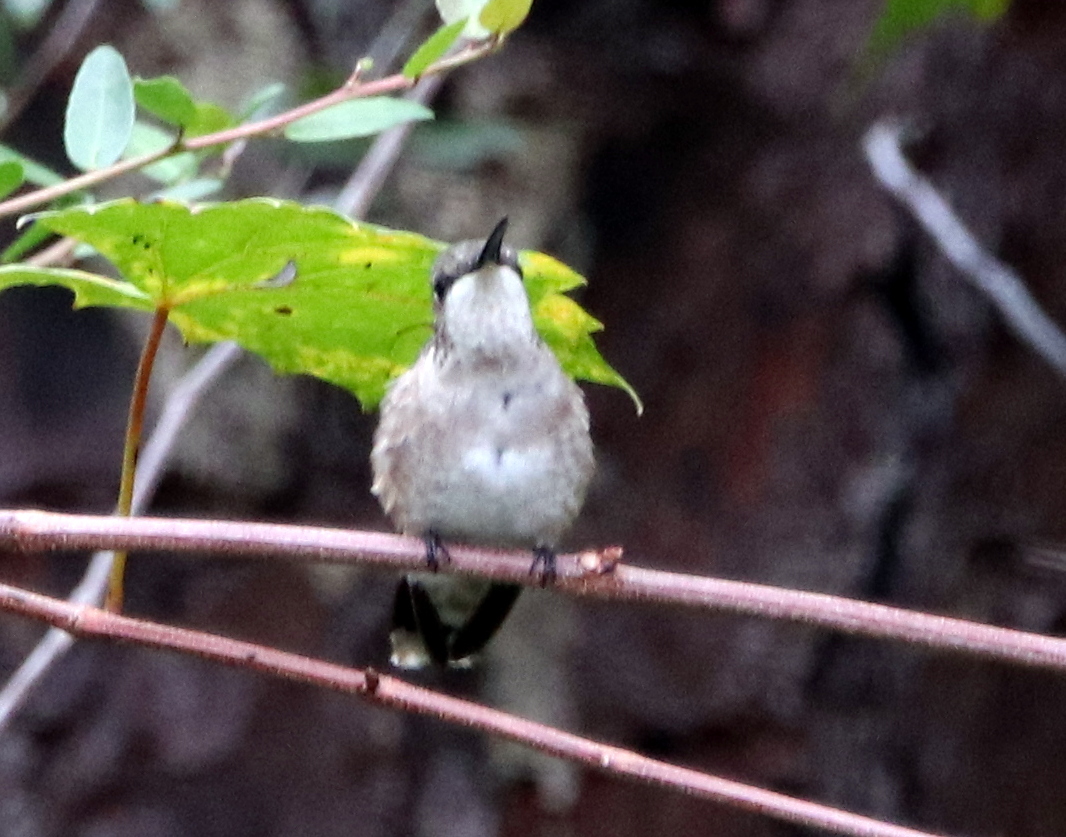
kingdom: Animalia
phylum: Chordata
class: Aves
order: Apodiformes
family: Trochilidae
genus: Archilochus
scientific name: Archilochus colubris
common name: Ruby-throated hummingbird
